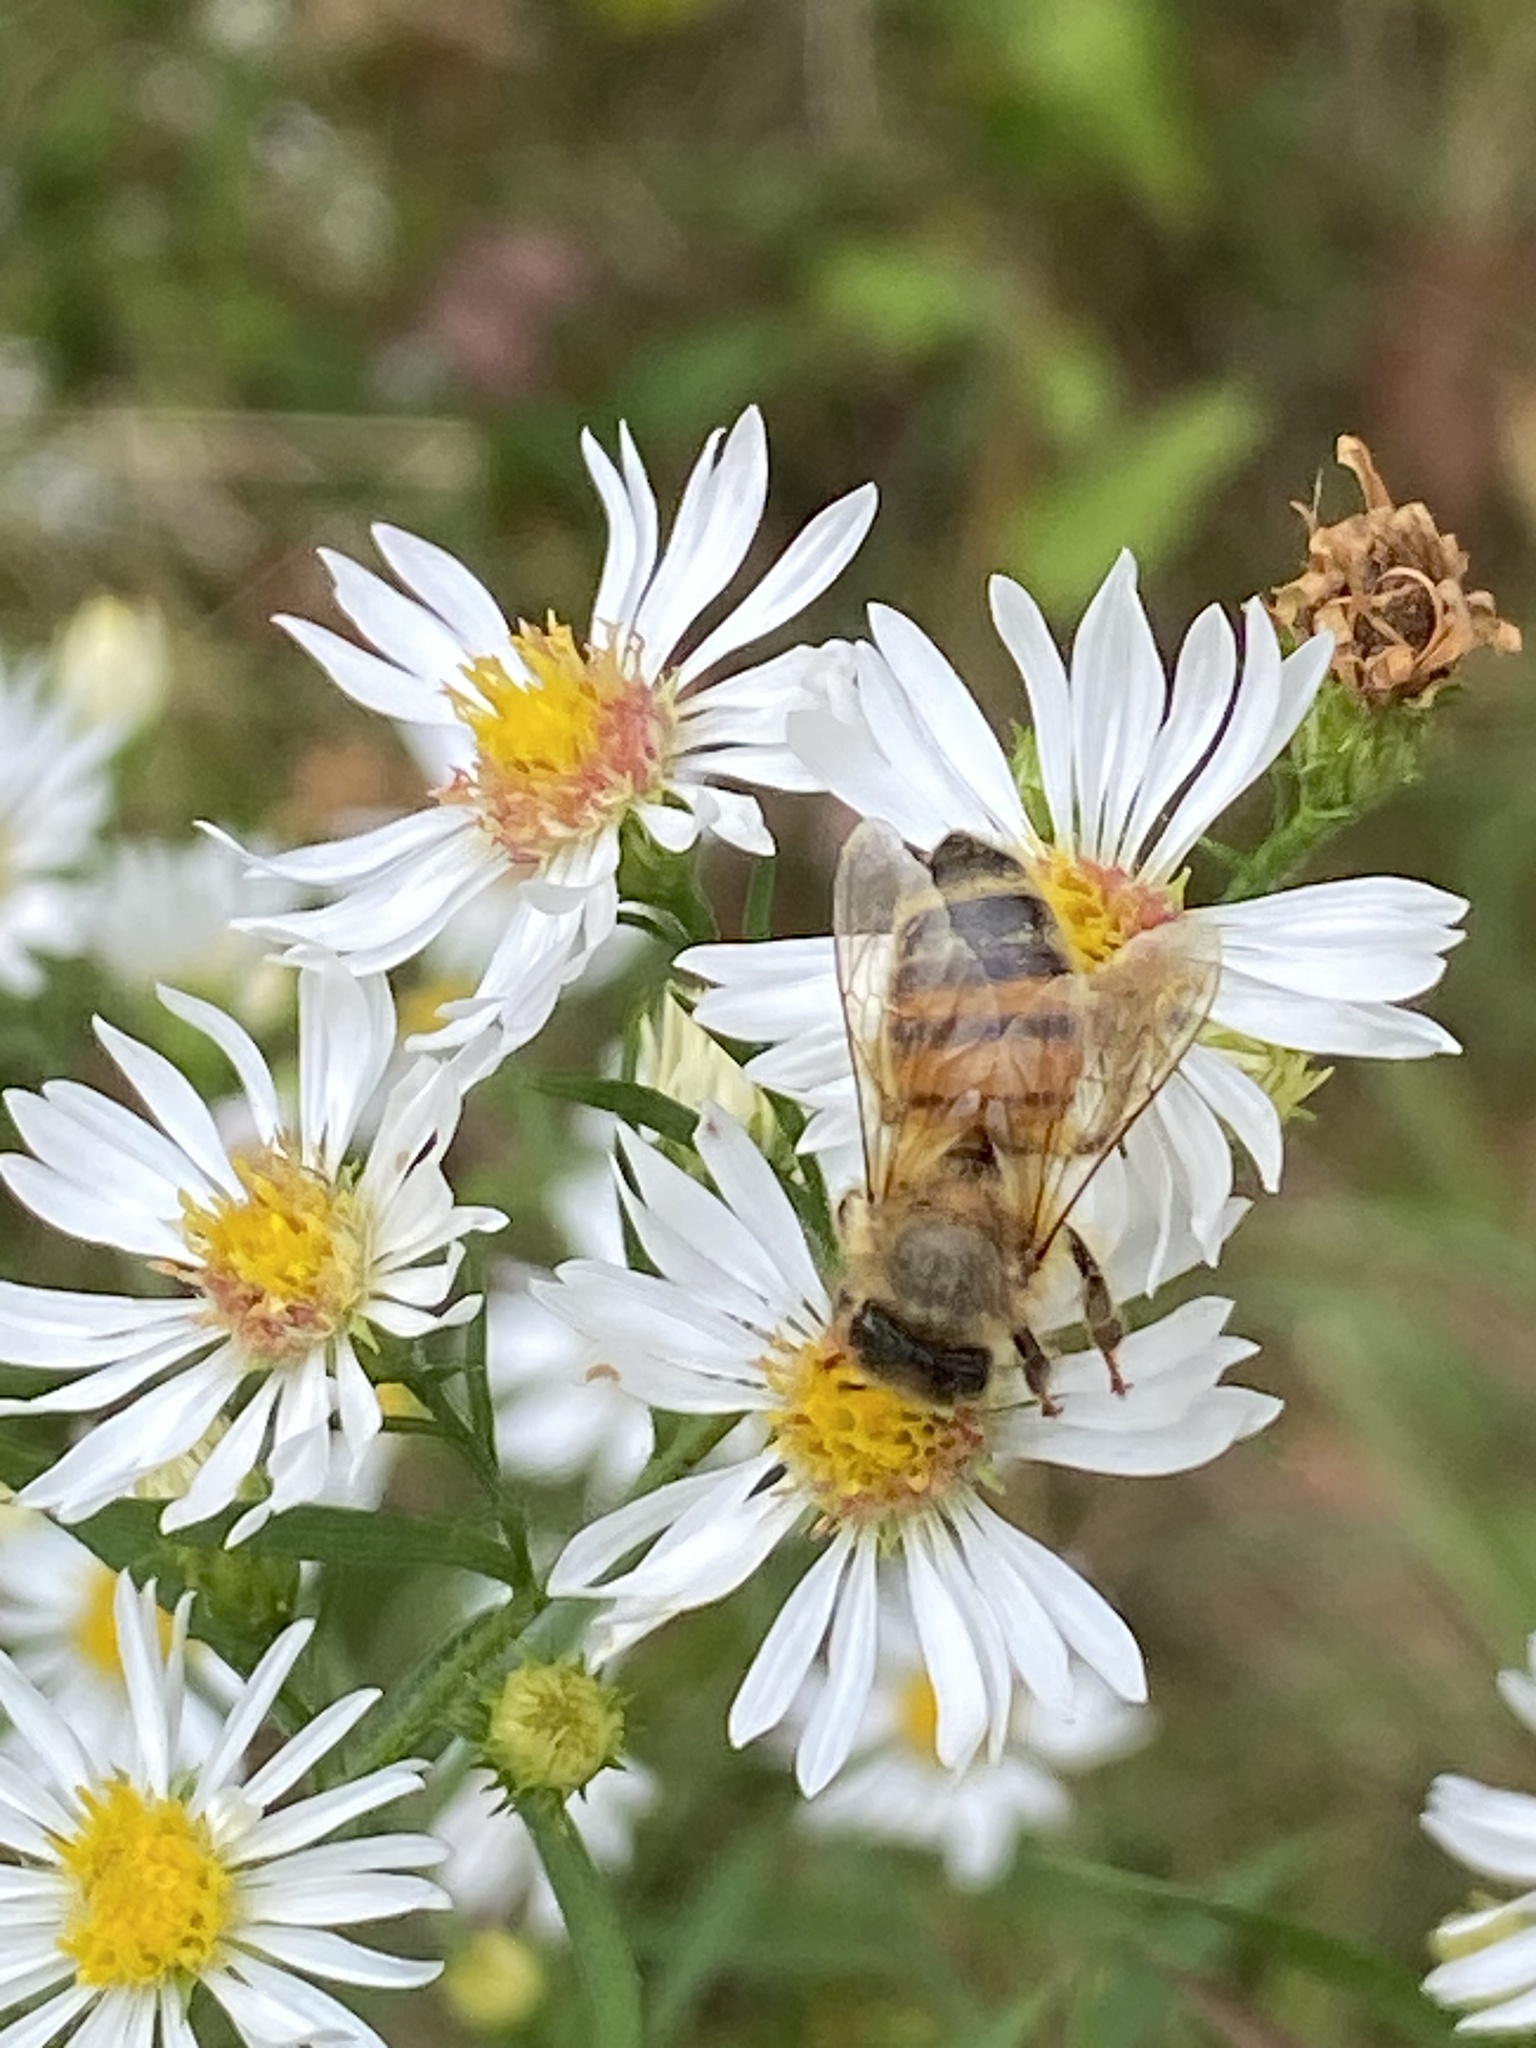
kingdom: Animalia
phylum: Arthropoda
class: Insecta
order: Hymenoptera
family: Apidae
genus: Apis
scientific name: Apis mellifera
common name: Honey bee
